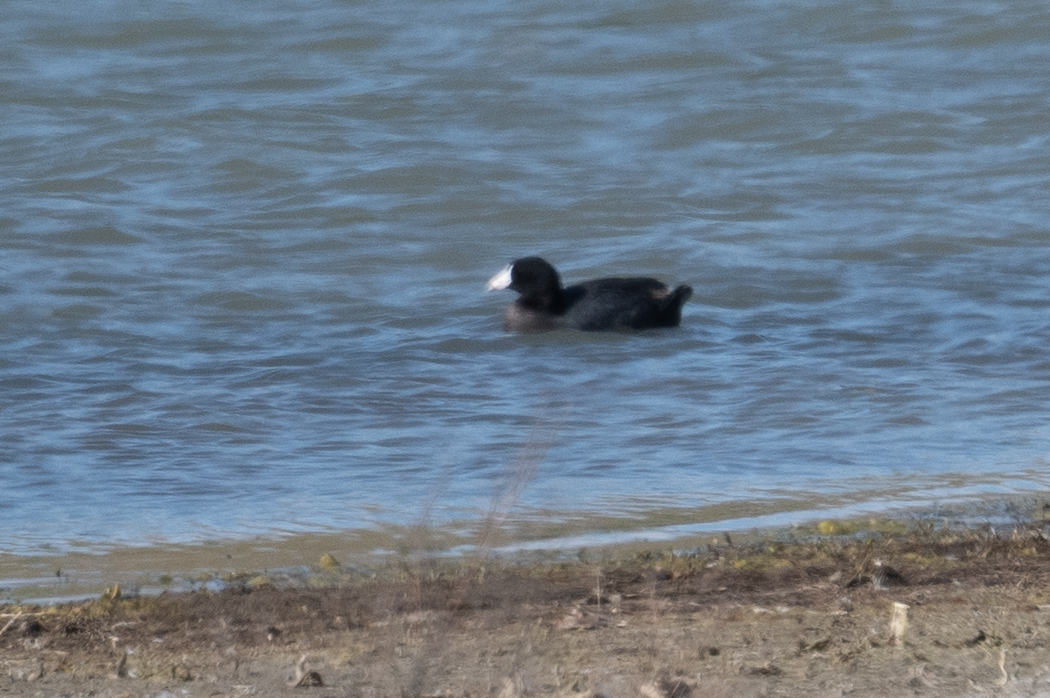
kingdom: Animalia
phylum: Chordata
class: Aves
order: Gruiformes
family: Rallidae
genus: Fulica
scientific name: Fulica americana
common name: American coot
